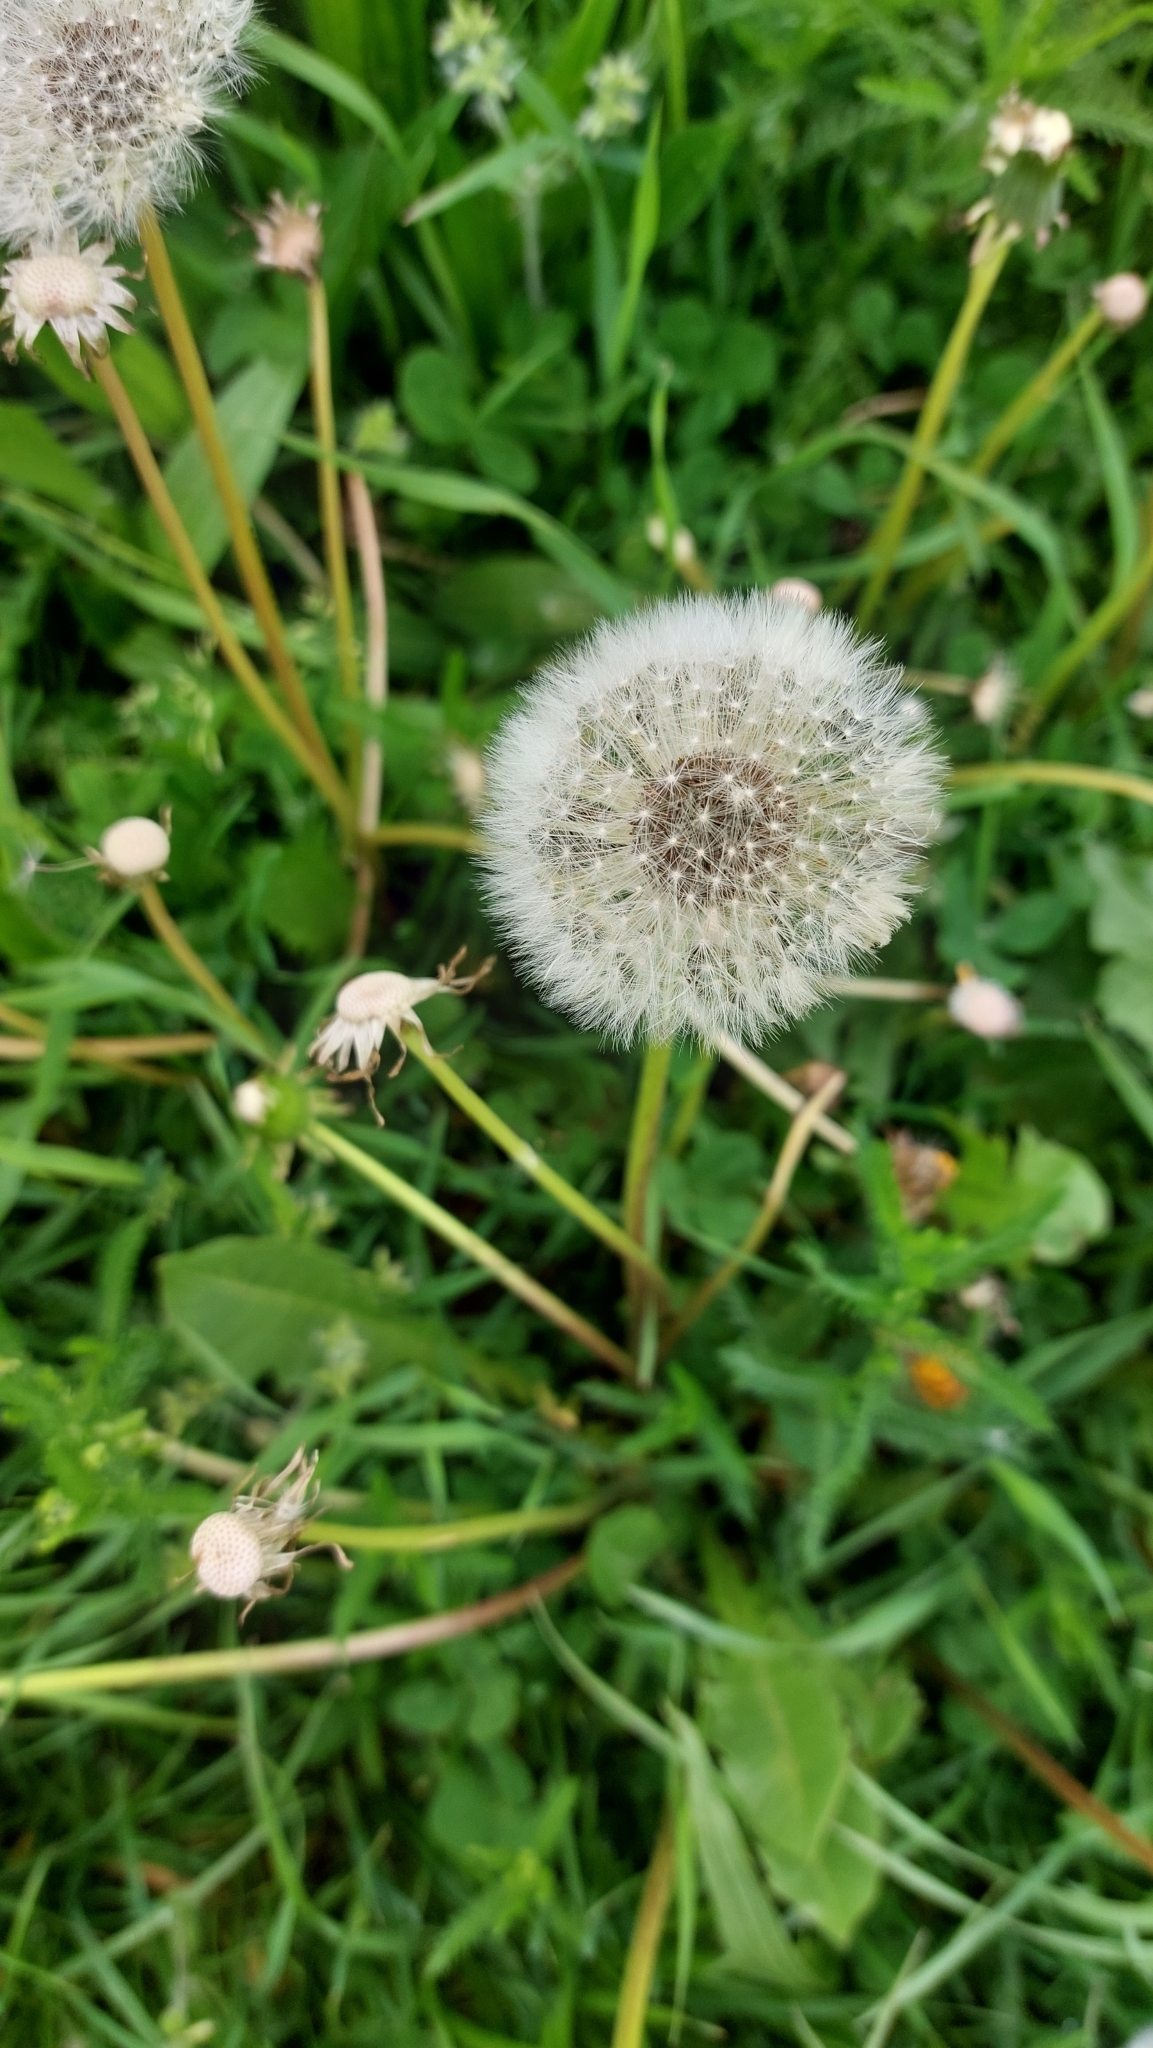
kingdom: Plantae
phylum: Tracheophyta
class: Magnoliopsida
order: Asterales
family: Asteraceae
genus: Taraxacum
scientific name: Taraxacum
